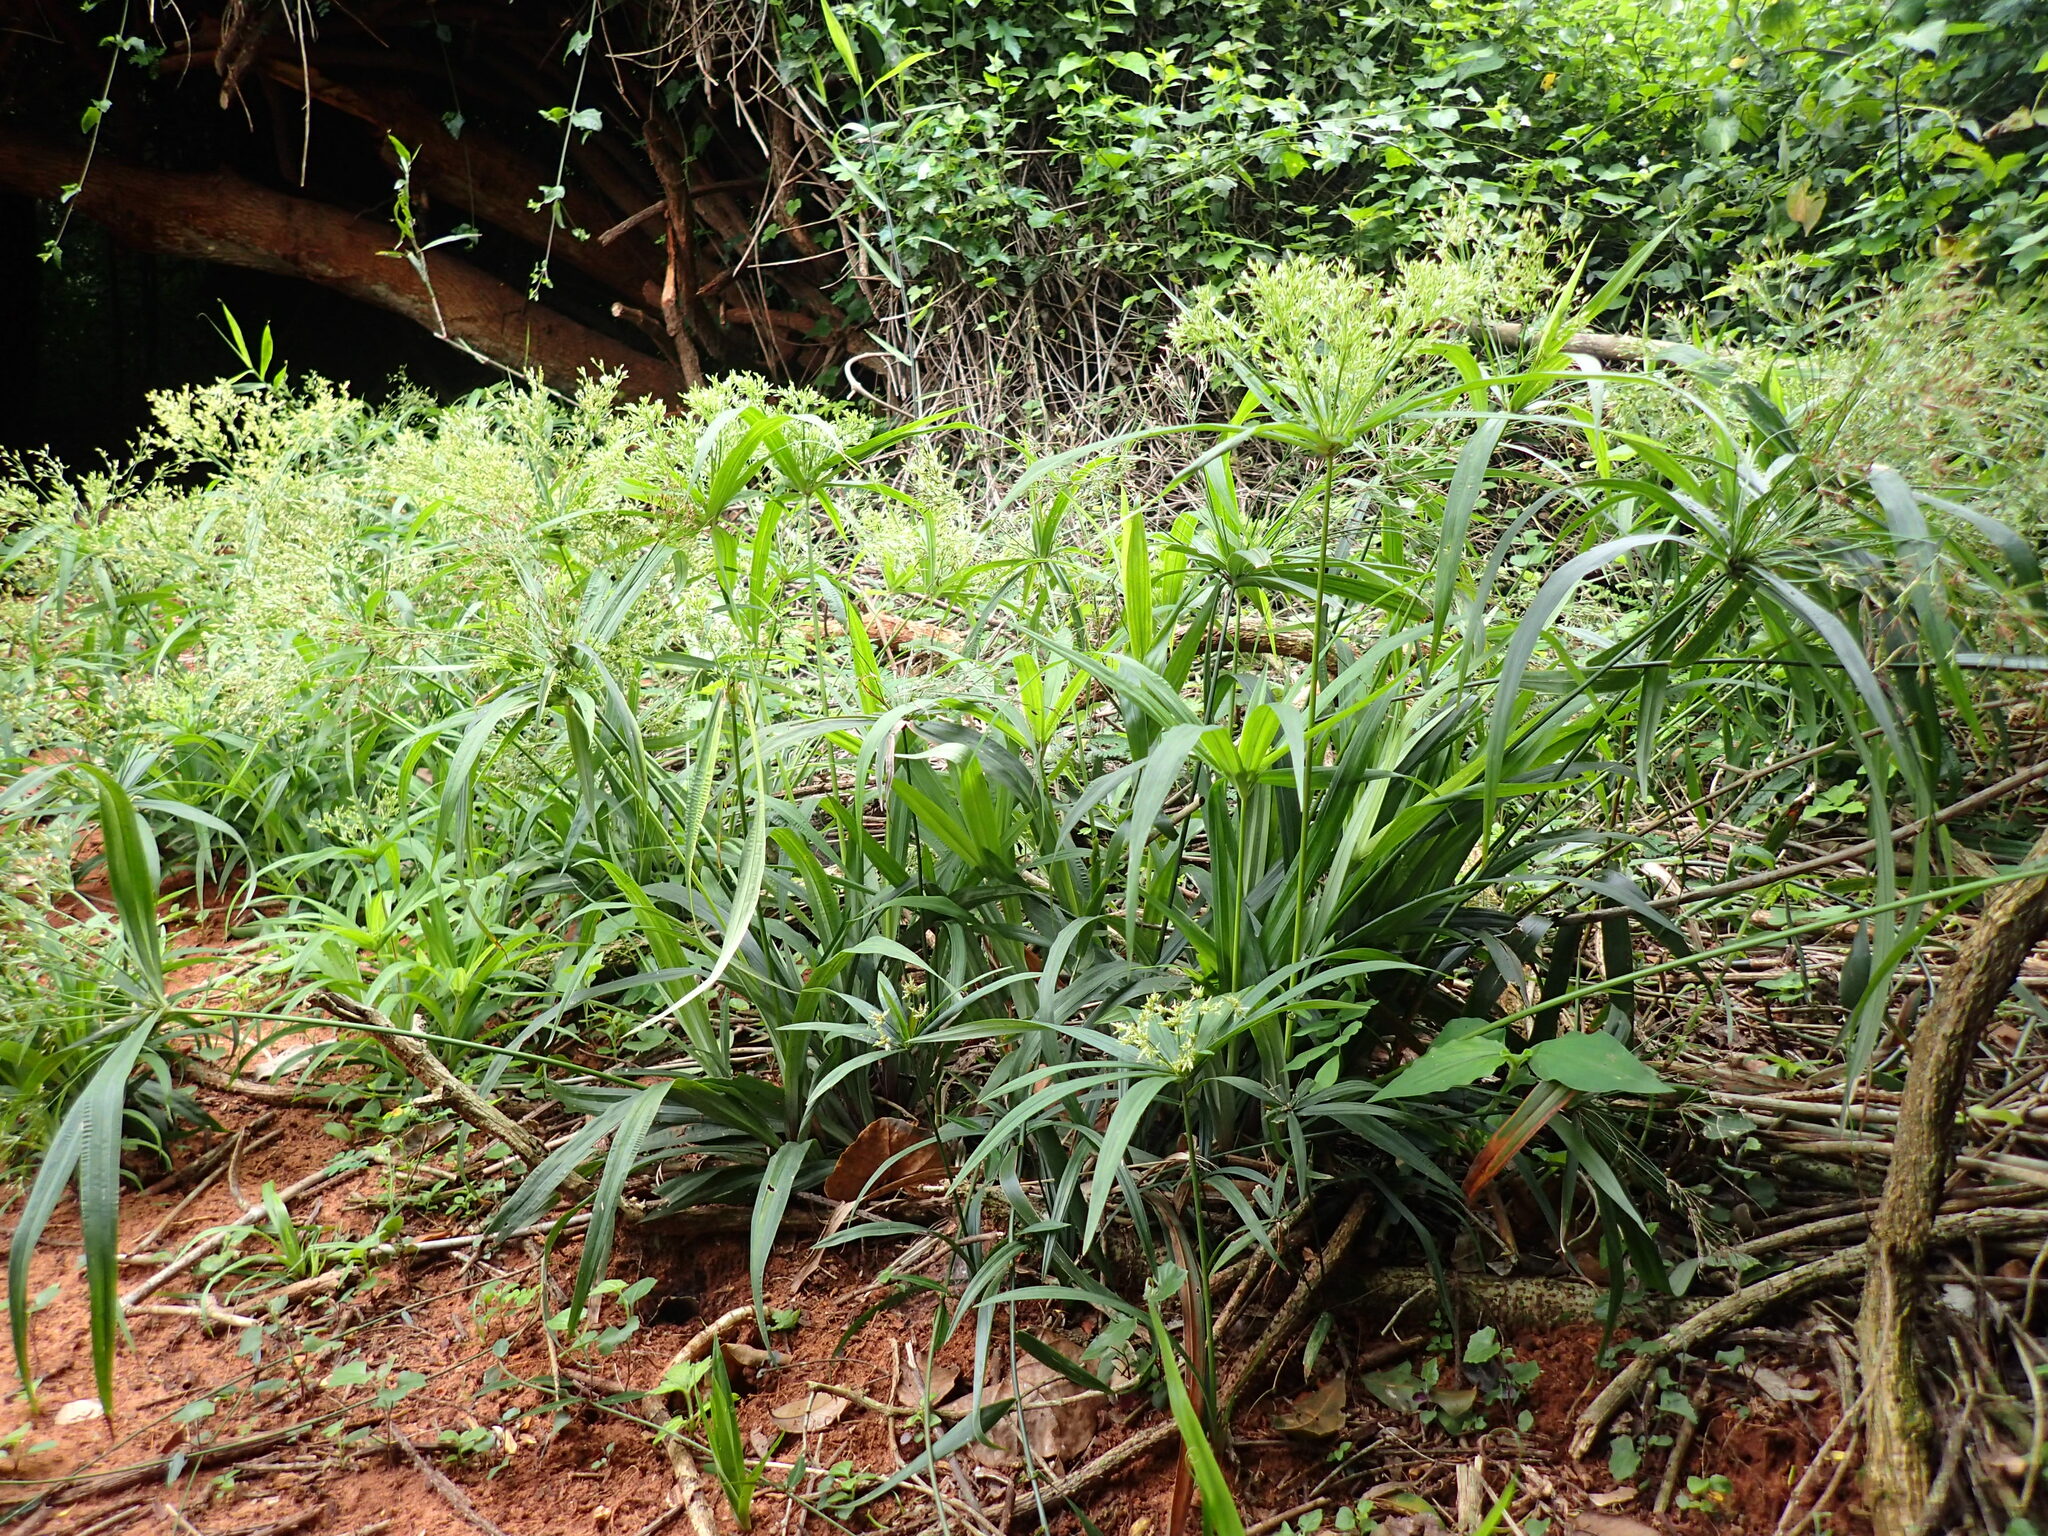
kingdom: Plantae
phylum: Tracheophyta
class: Liliopsida
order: Poales
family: Cyperaceae
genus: Cyperus
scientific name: Cyperus albostriatus
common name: Dwarf umbrella-grass
